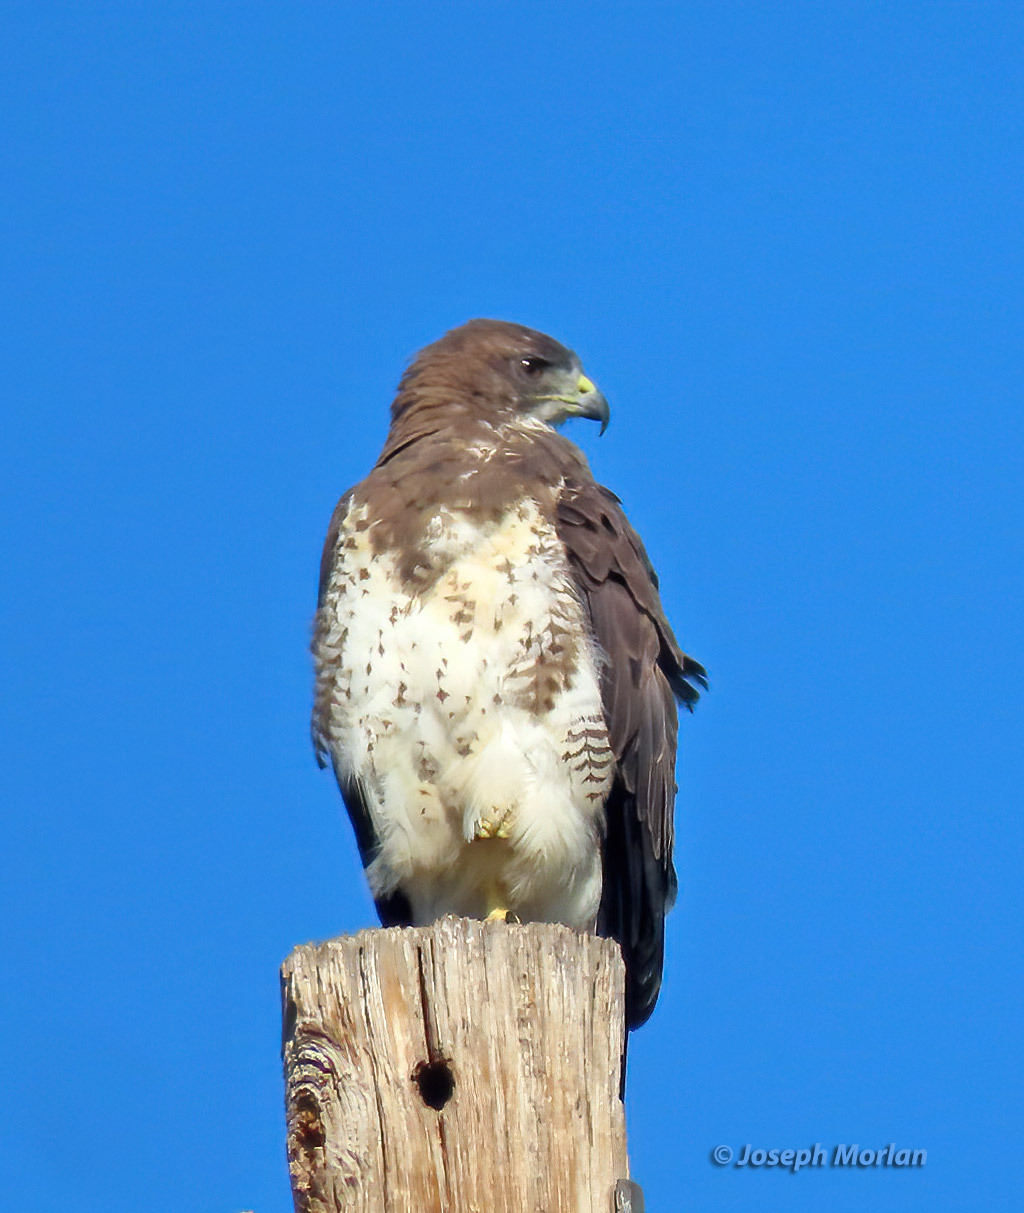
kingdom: Animalia
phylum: Chordata
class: Aves
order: Accipitriformes
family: Accipitridae
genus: Buteo
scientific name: Buteo swainsoni
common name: Swainson's hawk
